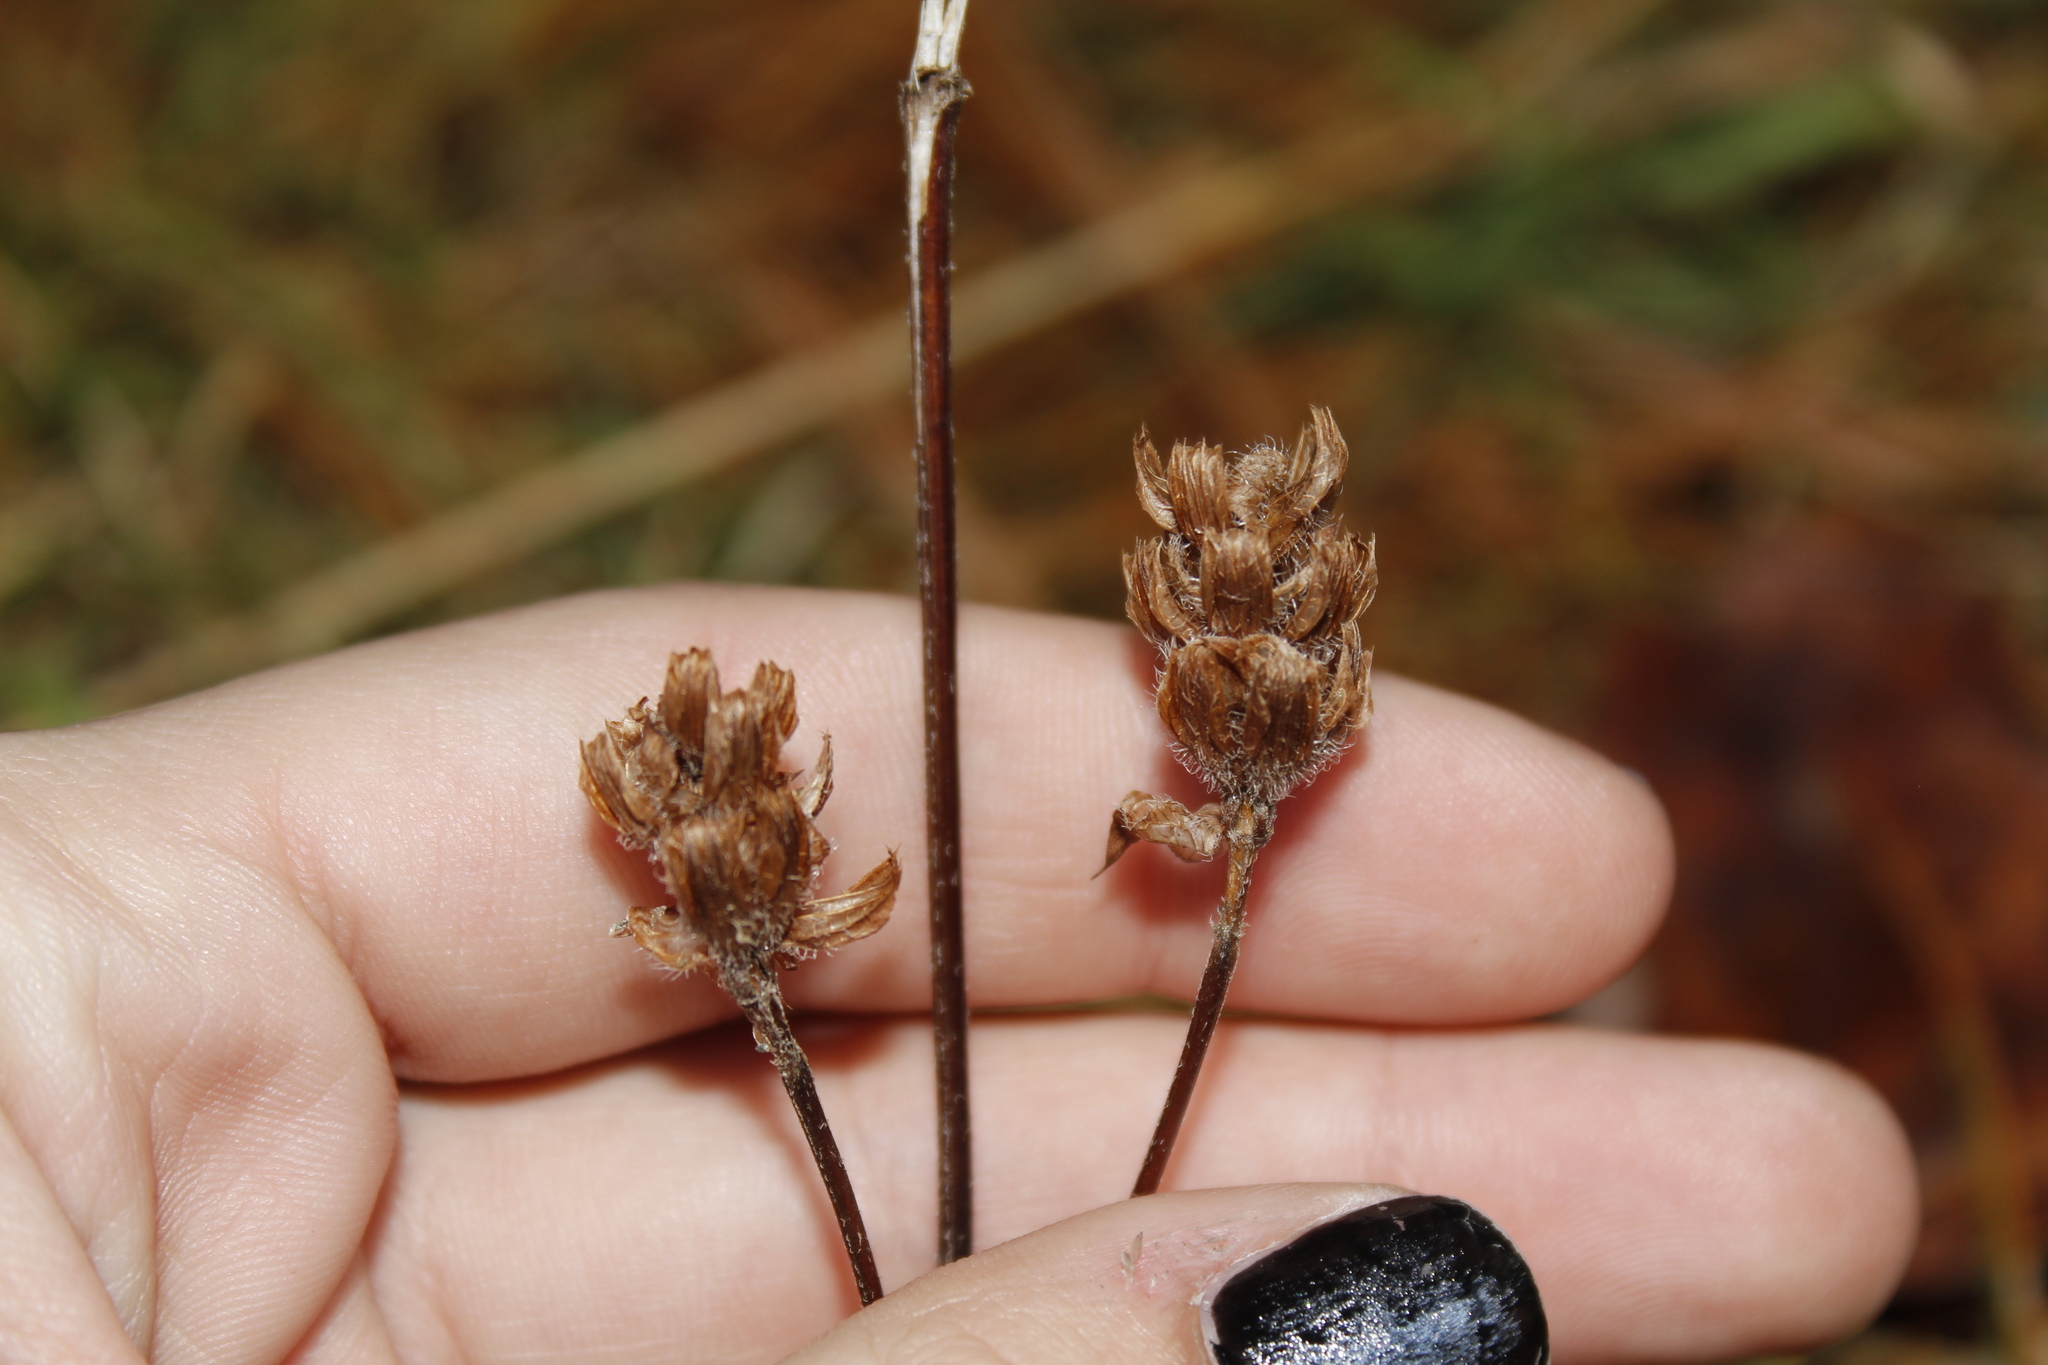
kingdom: Plantae
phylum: Tracheophyta
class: Magnoliopsida
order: Lamiales
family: Lamiaceae
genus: Prunella
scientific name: Prunella vulgaris
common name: Heal-all
